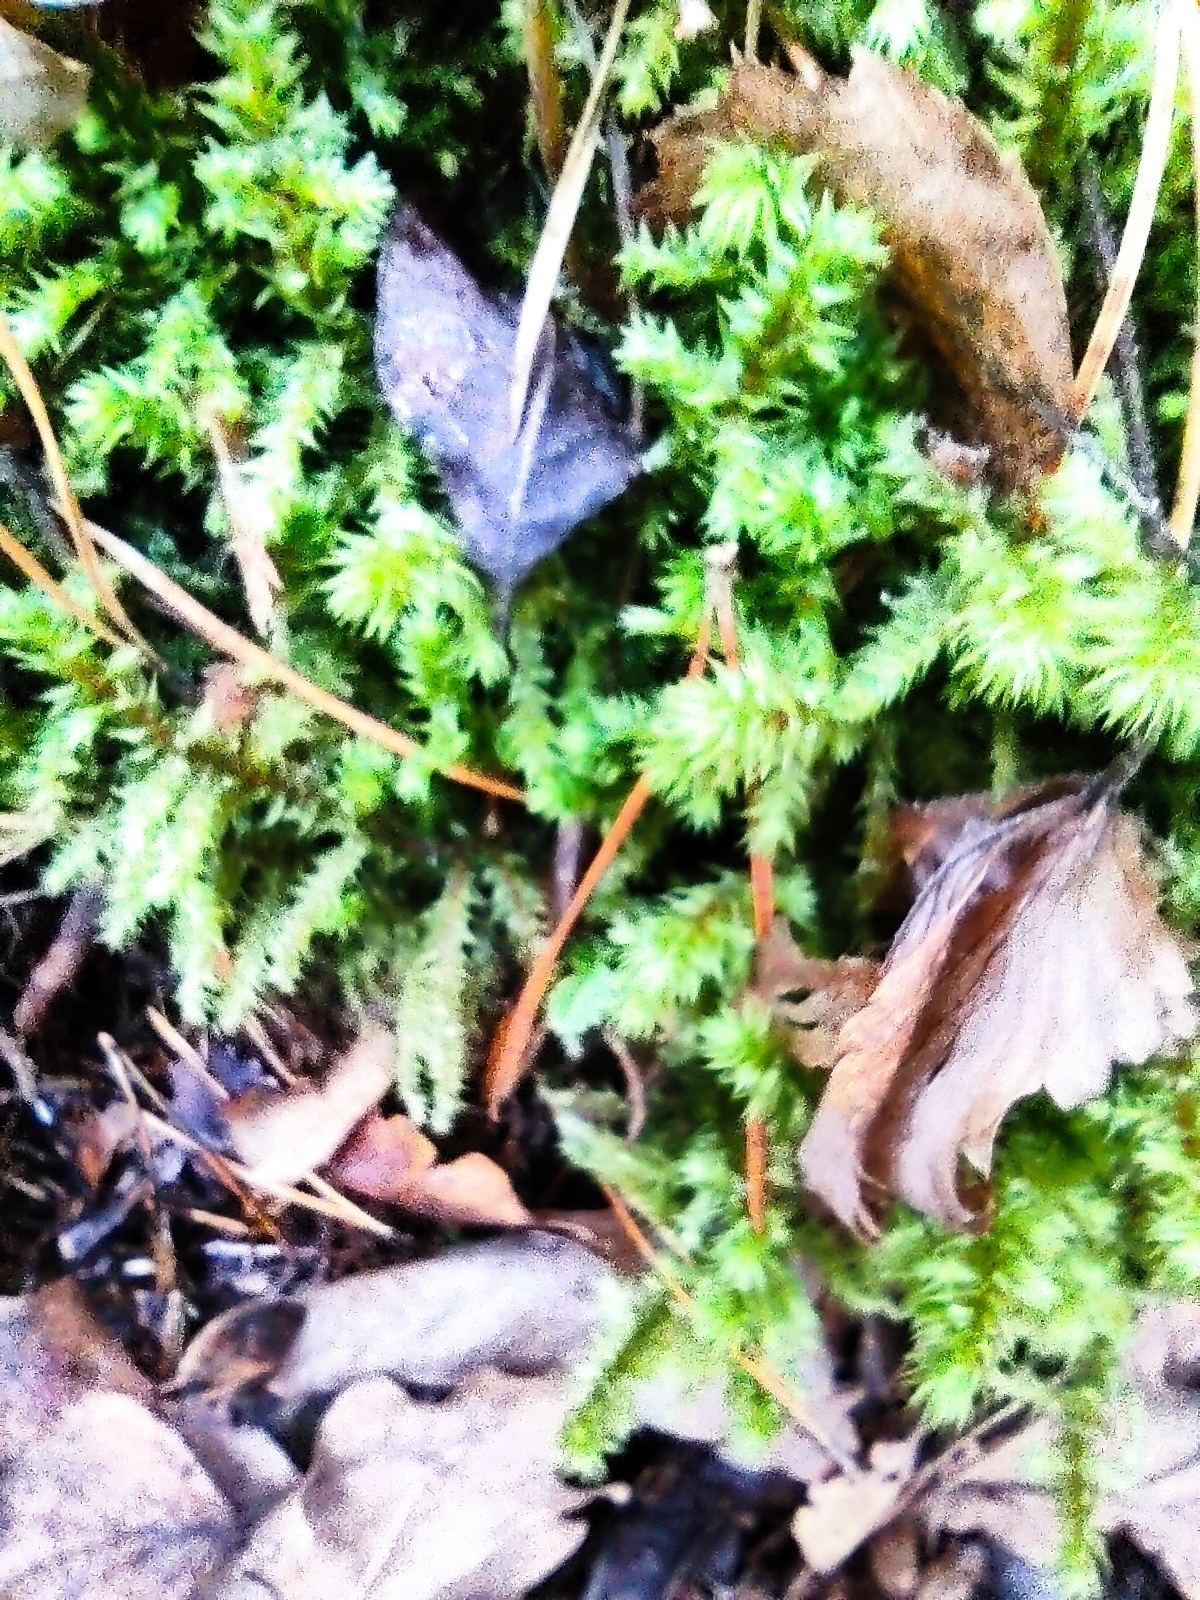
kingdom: Plantae
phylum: Bryophyta
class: Bryopsida
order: Hypnales
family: Hylocomiaceae
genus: Hylocomiadelphus
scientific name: Hylocomiadelphus triquetrus
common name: Rough goose neck moss
